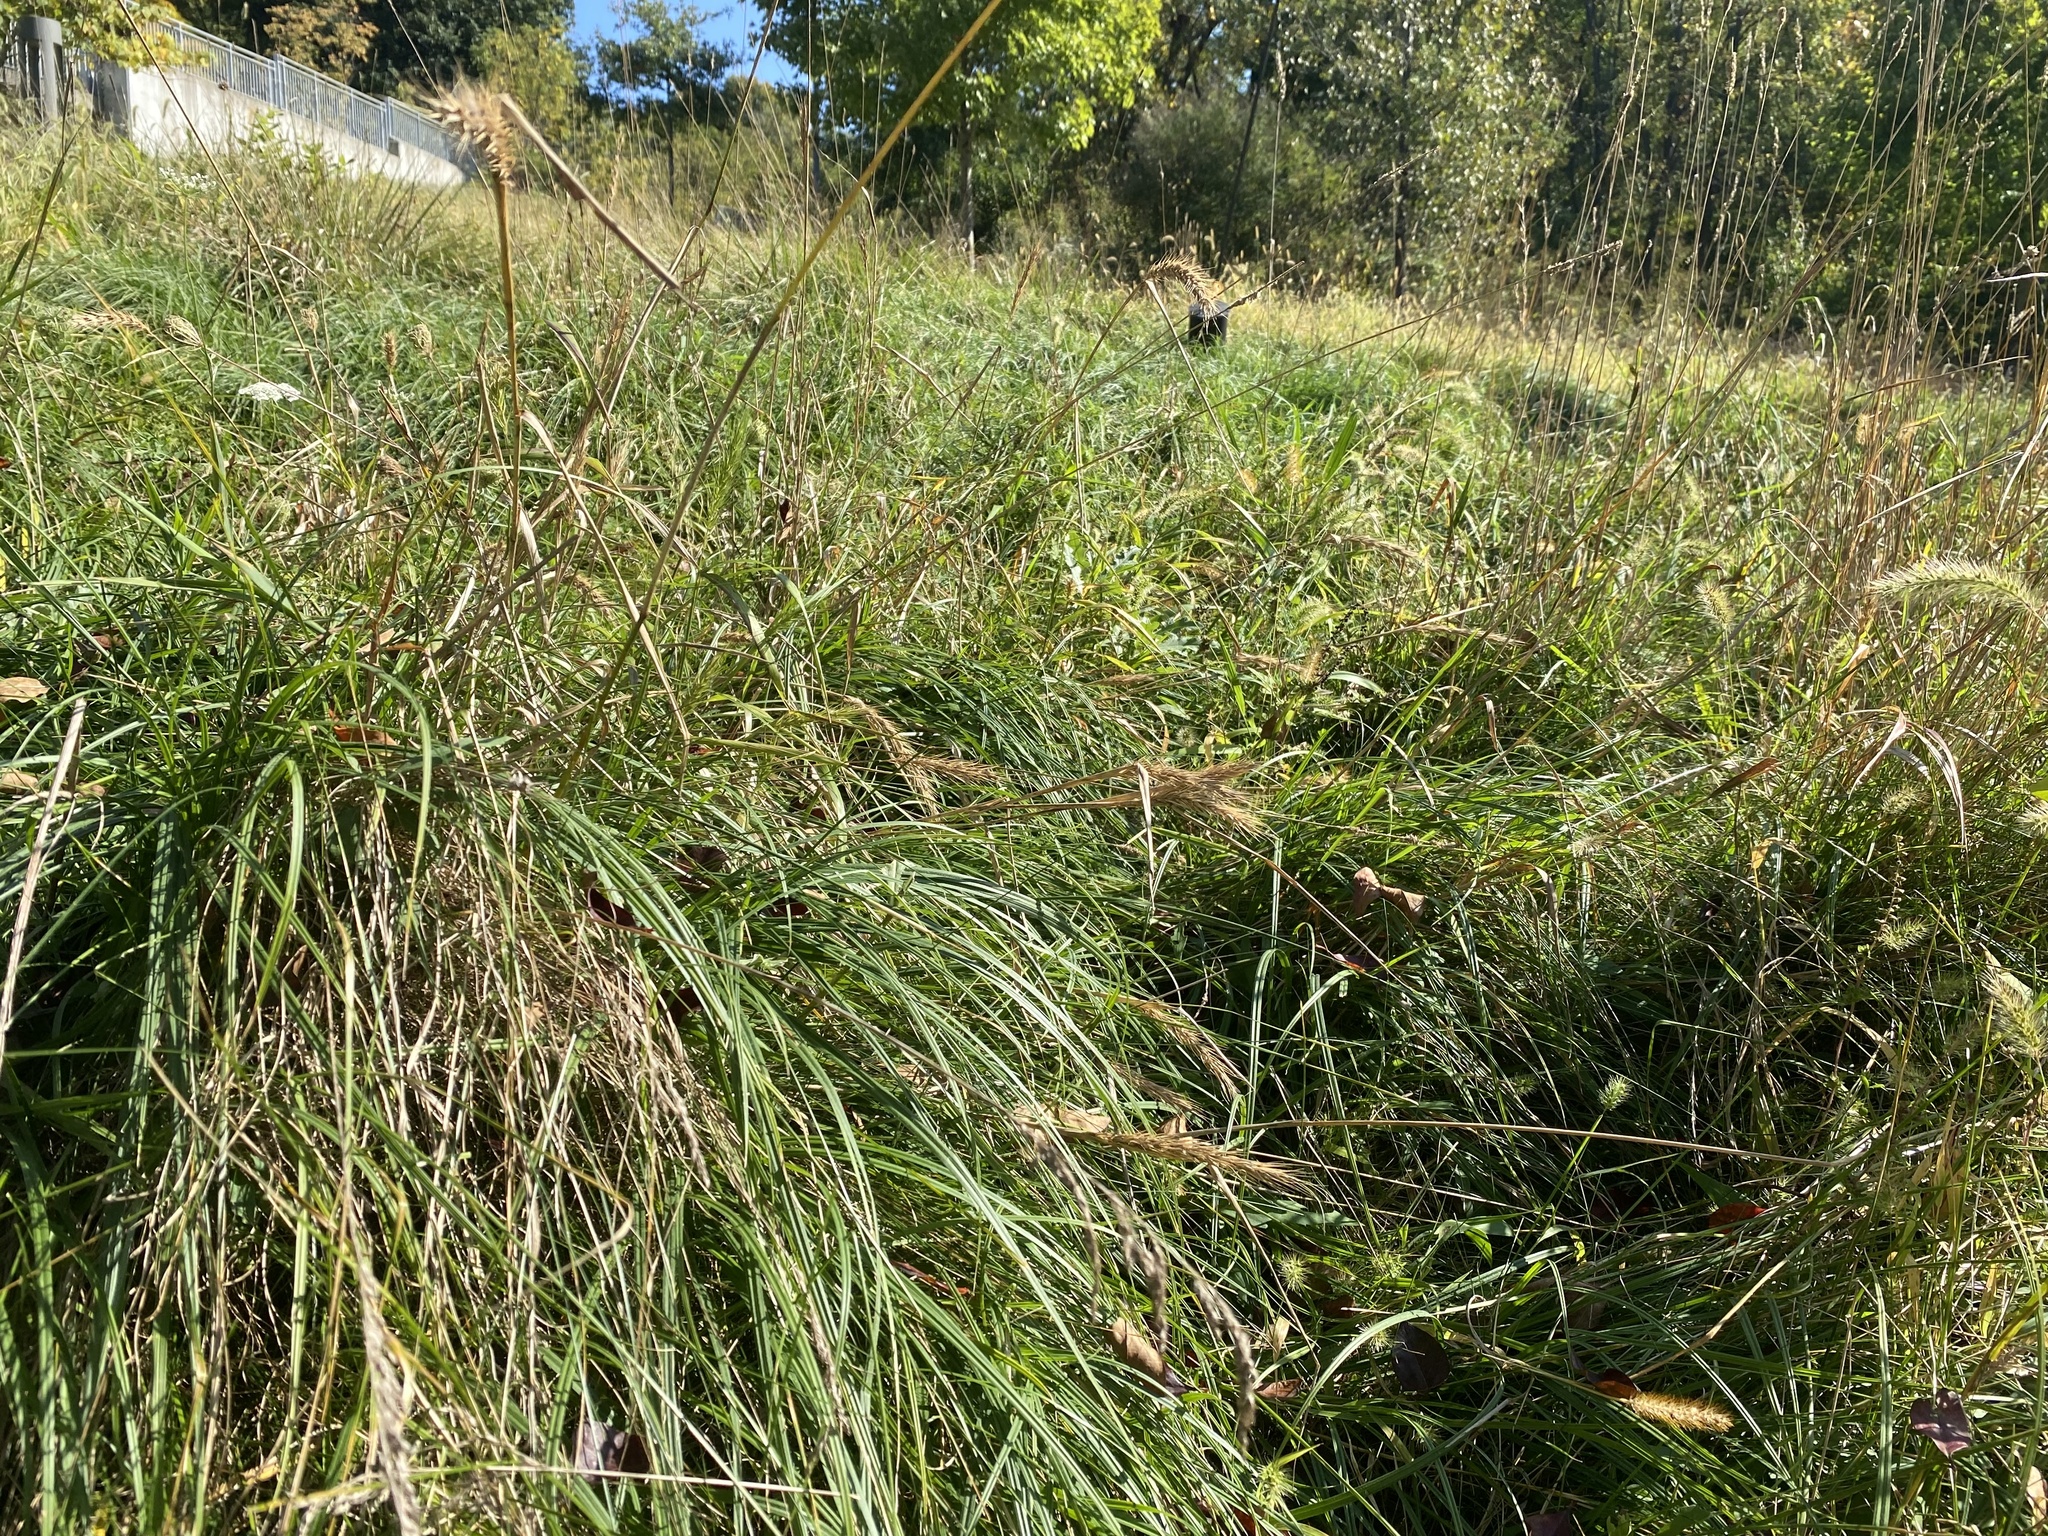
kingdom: Plantae
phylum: Tracheophyta
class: Liliopsida
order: Poales
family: Cyperaceae
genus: Carex
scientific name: Carex hirta
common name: Hairy sedge
